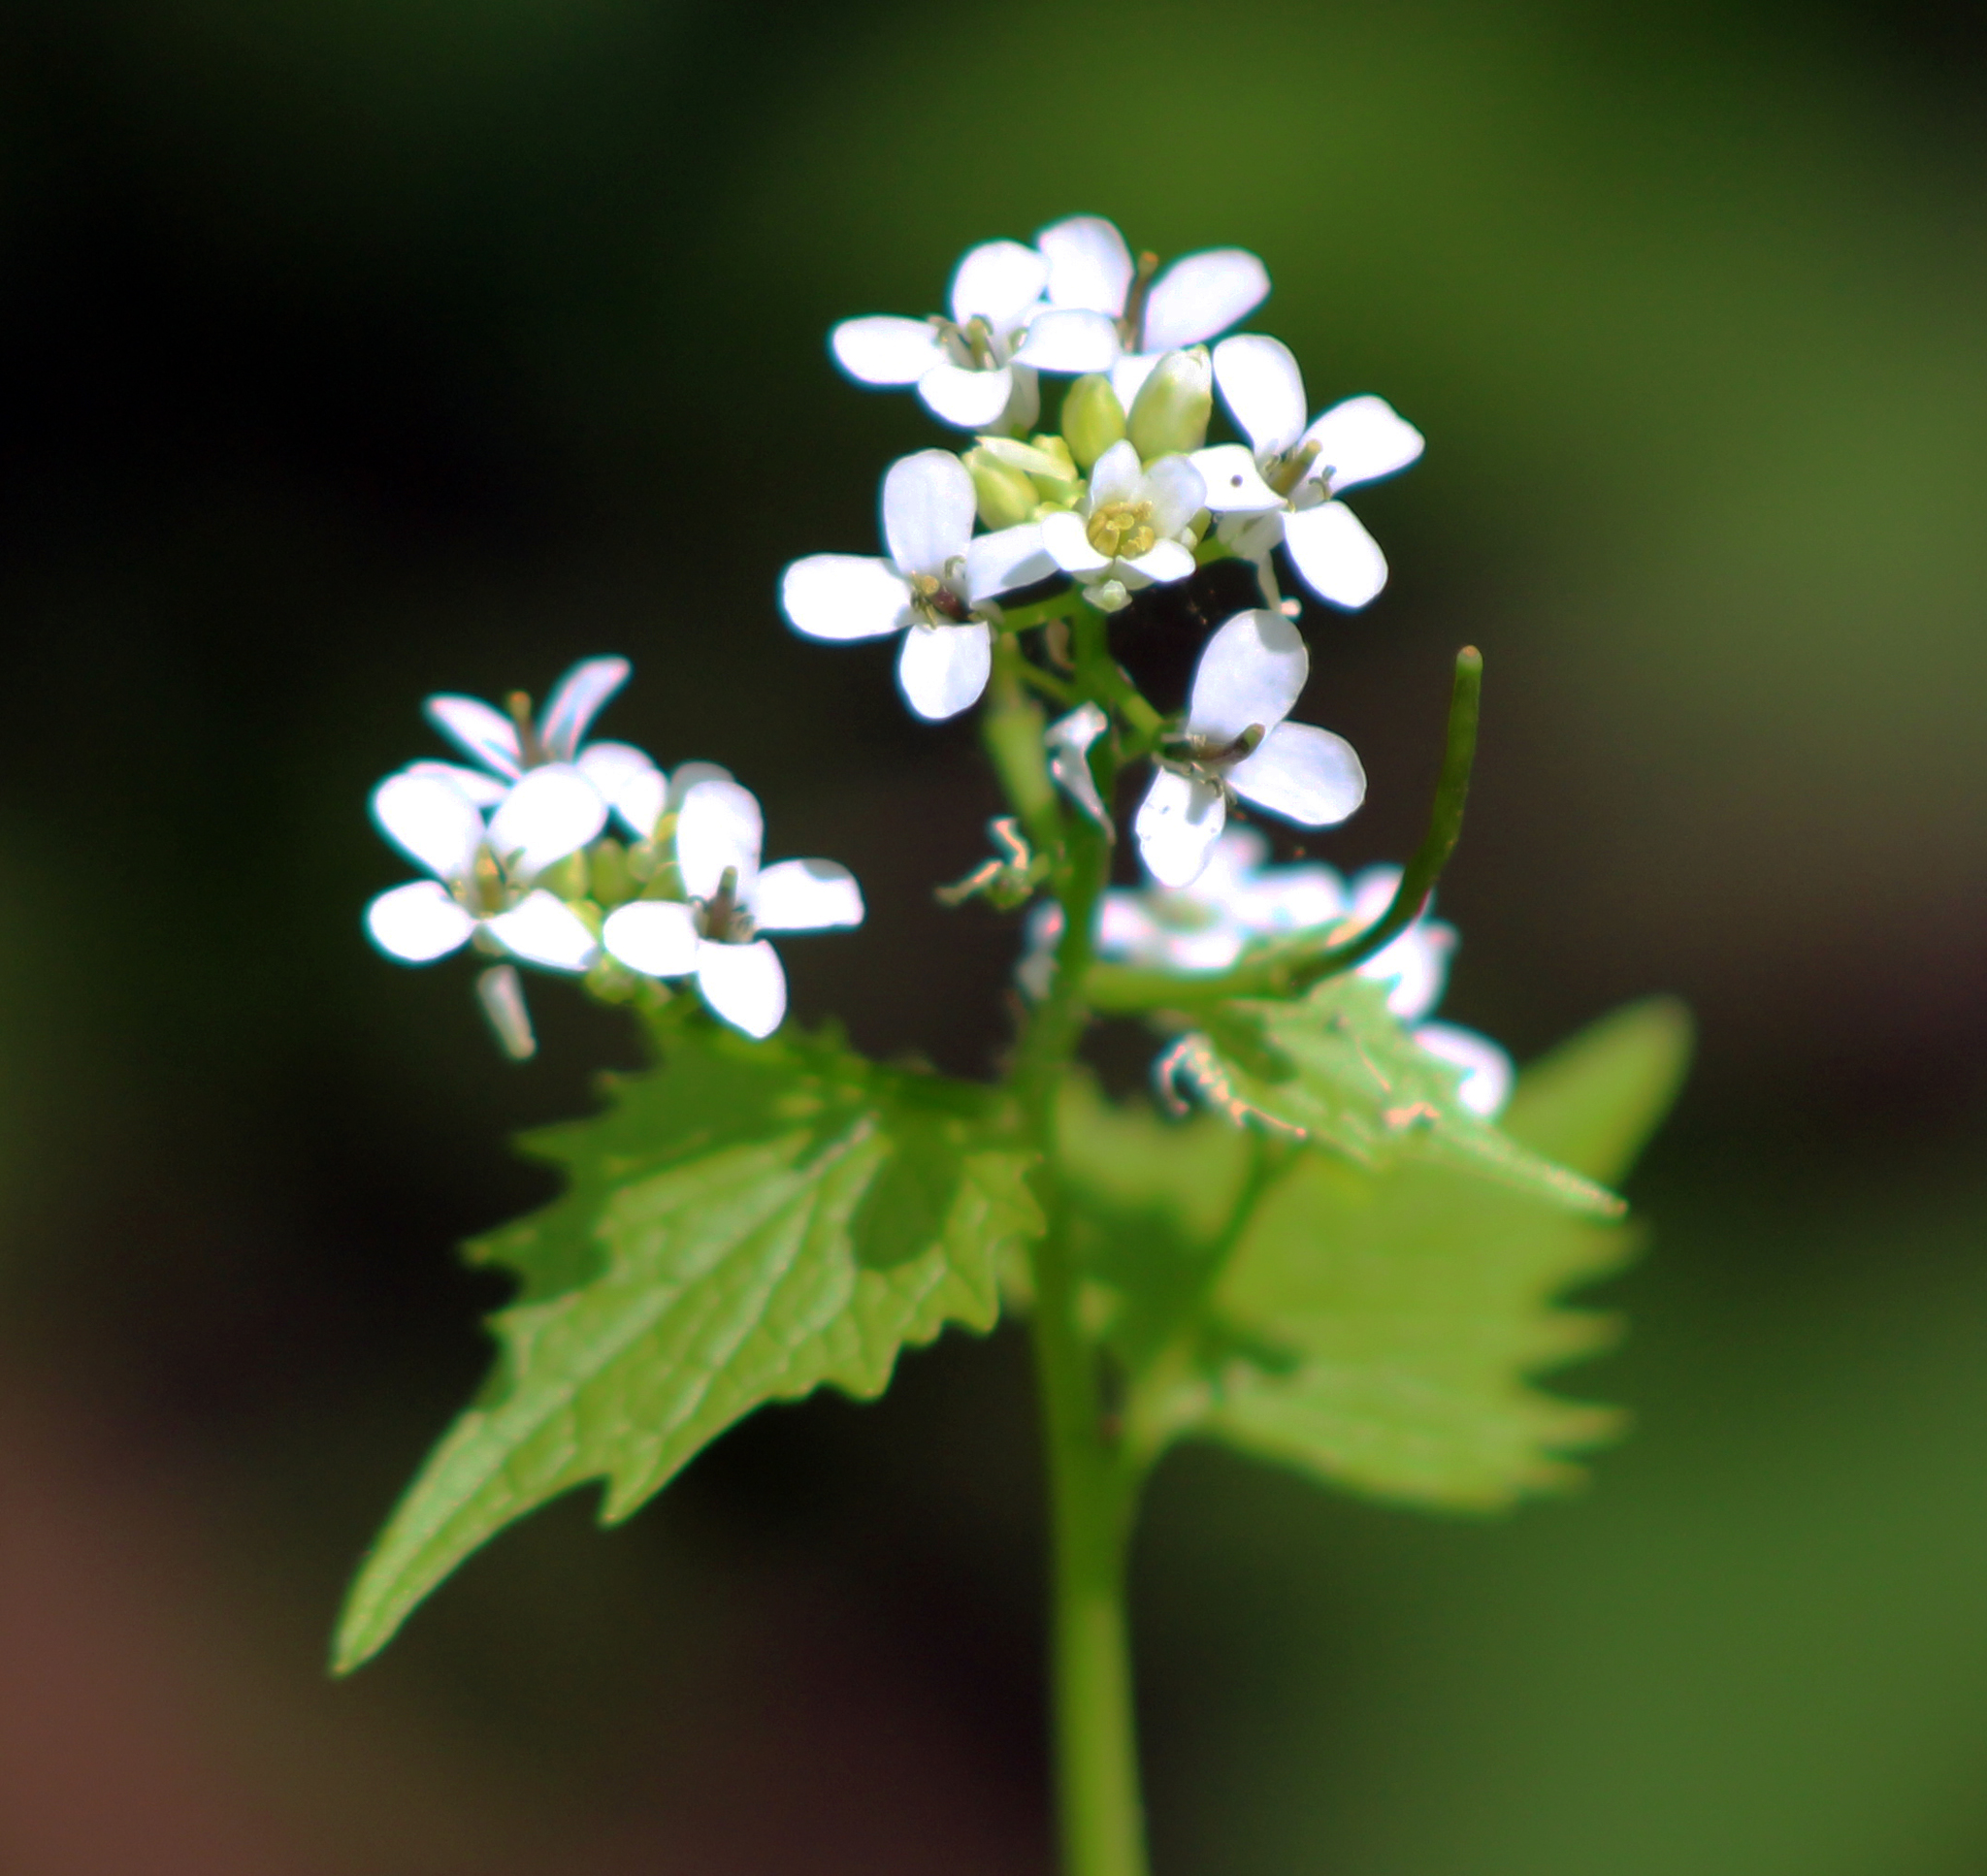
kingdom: Plantae
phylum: Tracheophyta
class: Magnoliopsida
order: Brassicales
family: Brassicaceae
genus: Alliaria
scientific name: Alliaria petiolata
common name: Garlic mustard
